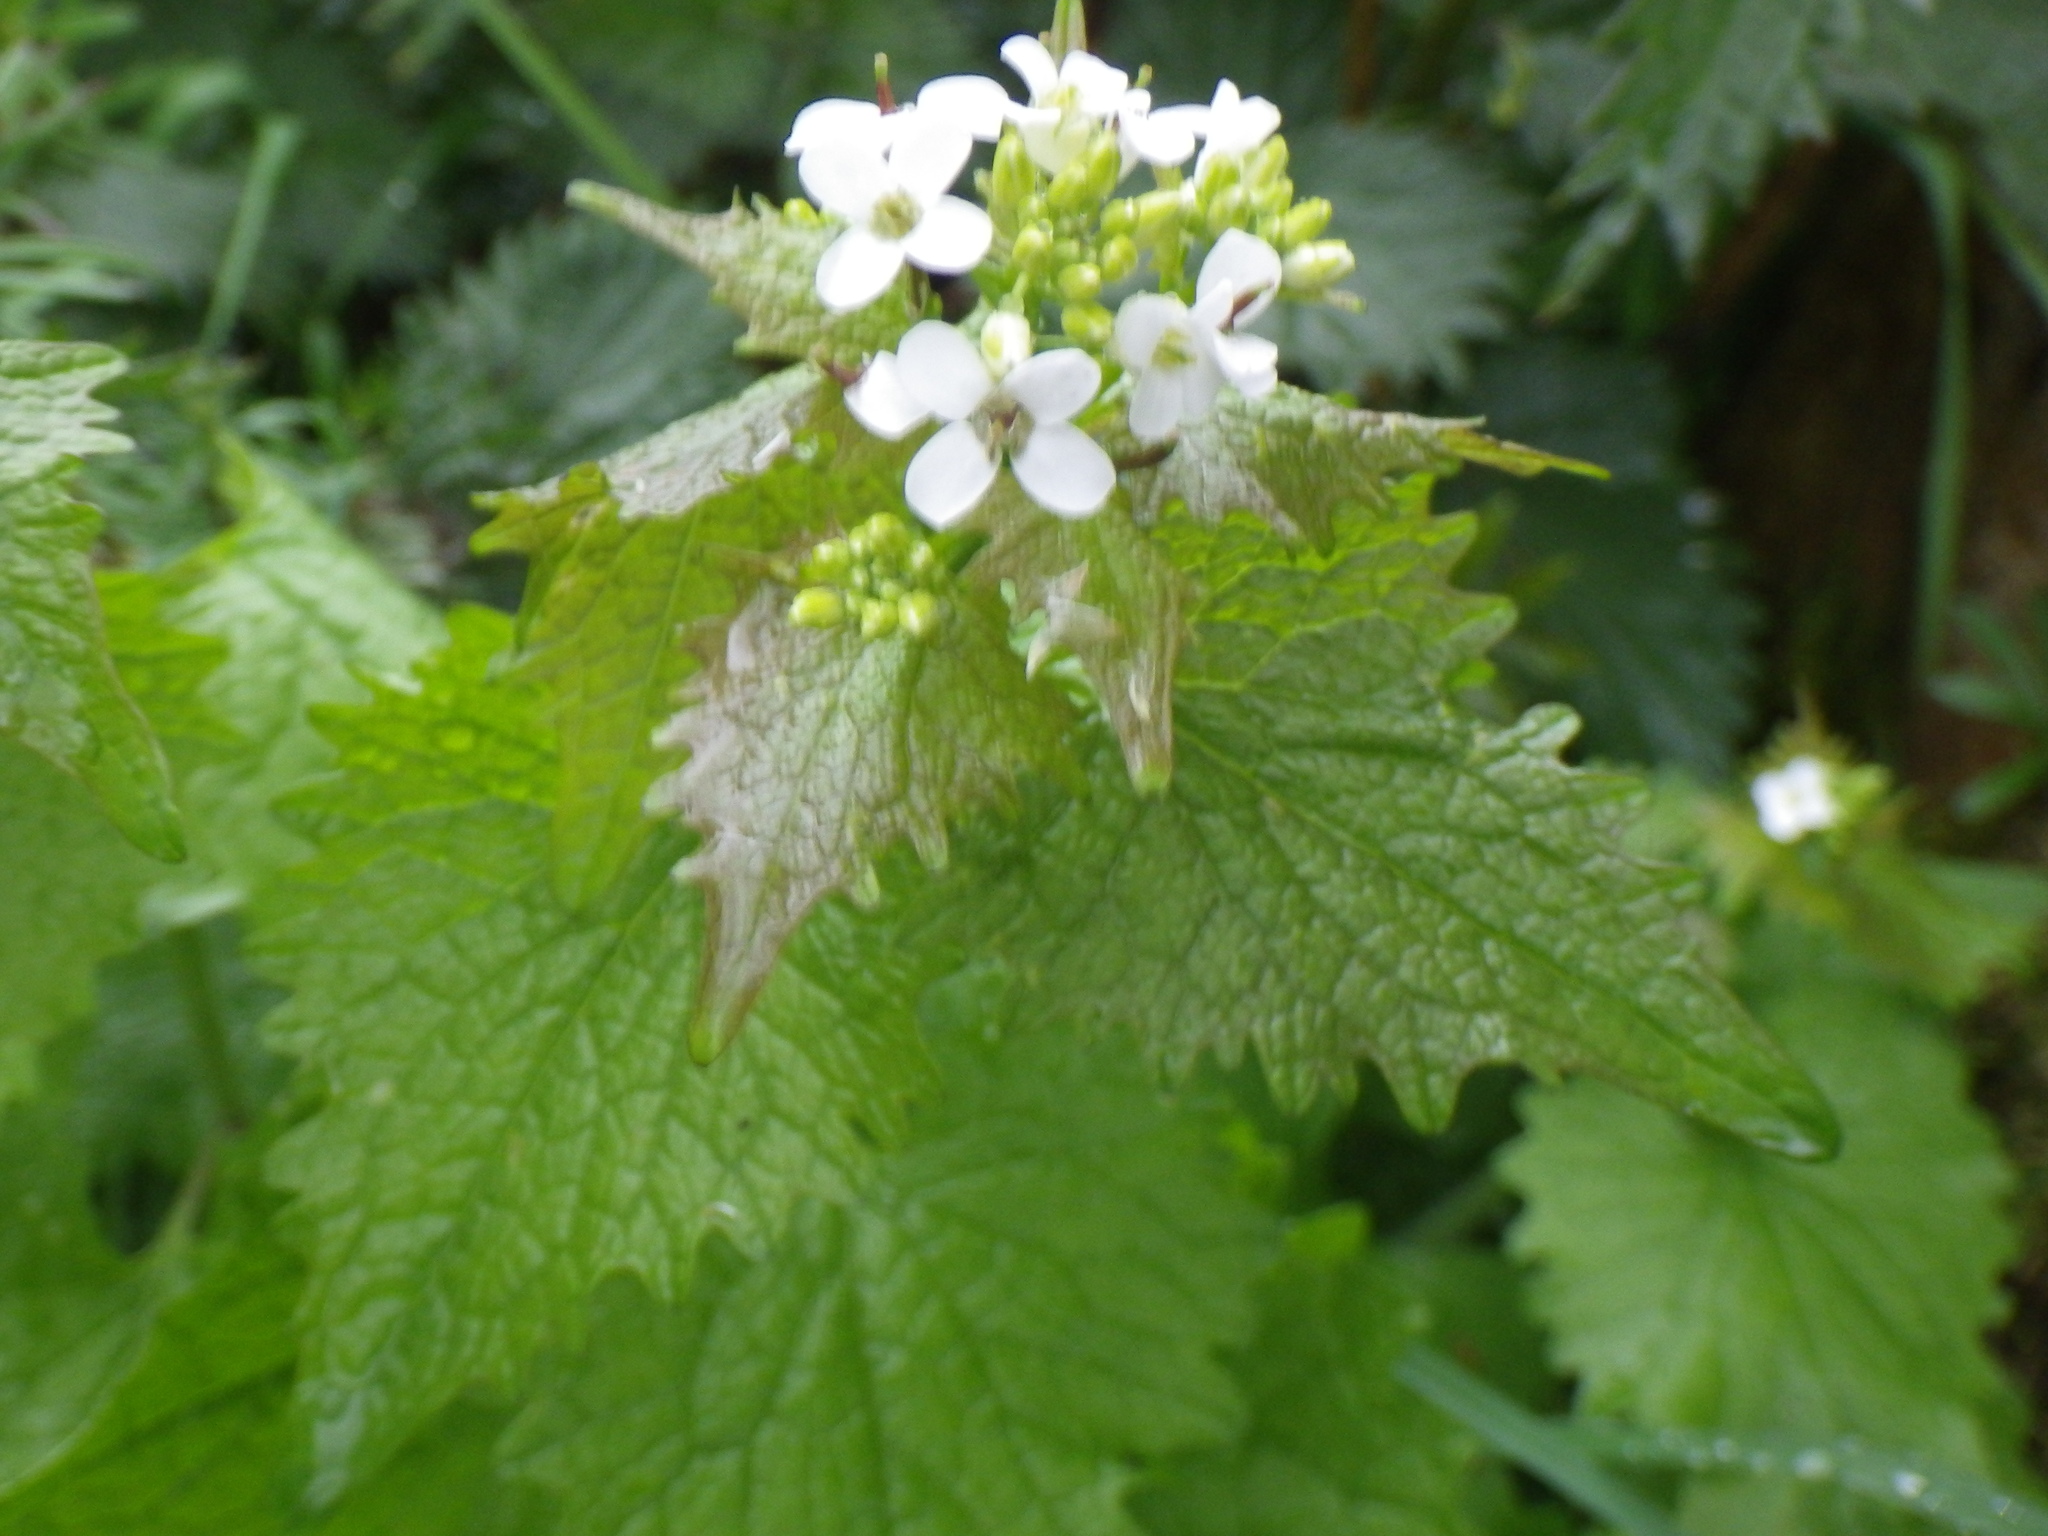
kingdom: Plantae
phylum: Tracheophyta
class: Magnoliopsida
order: Brassicales
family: Brassicaceae
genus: Alliaria
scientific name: Alliaria petiolata
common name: Garlic mustard
